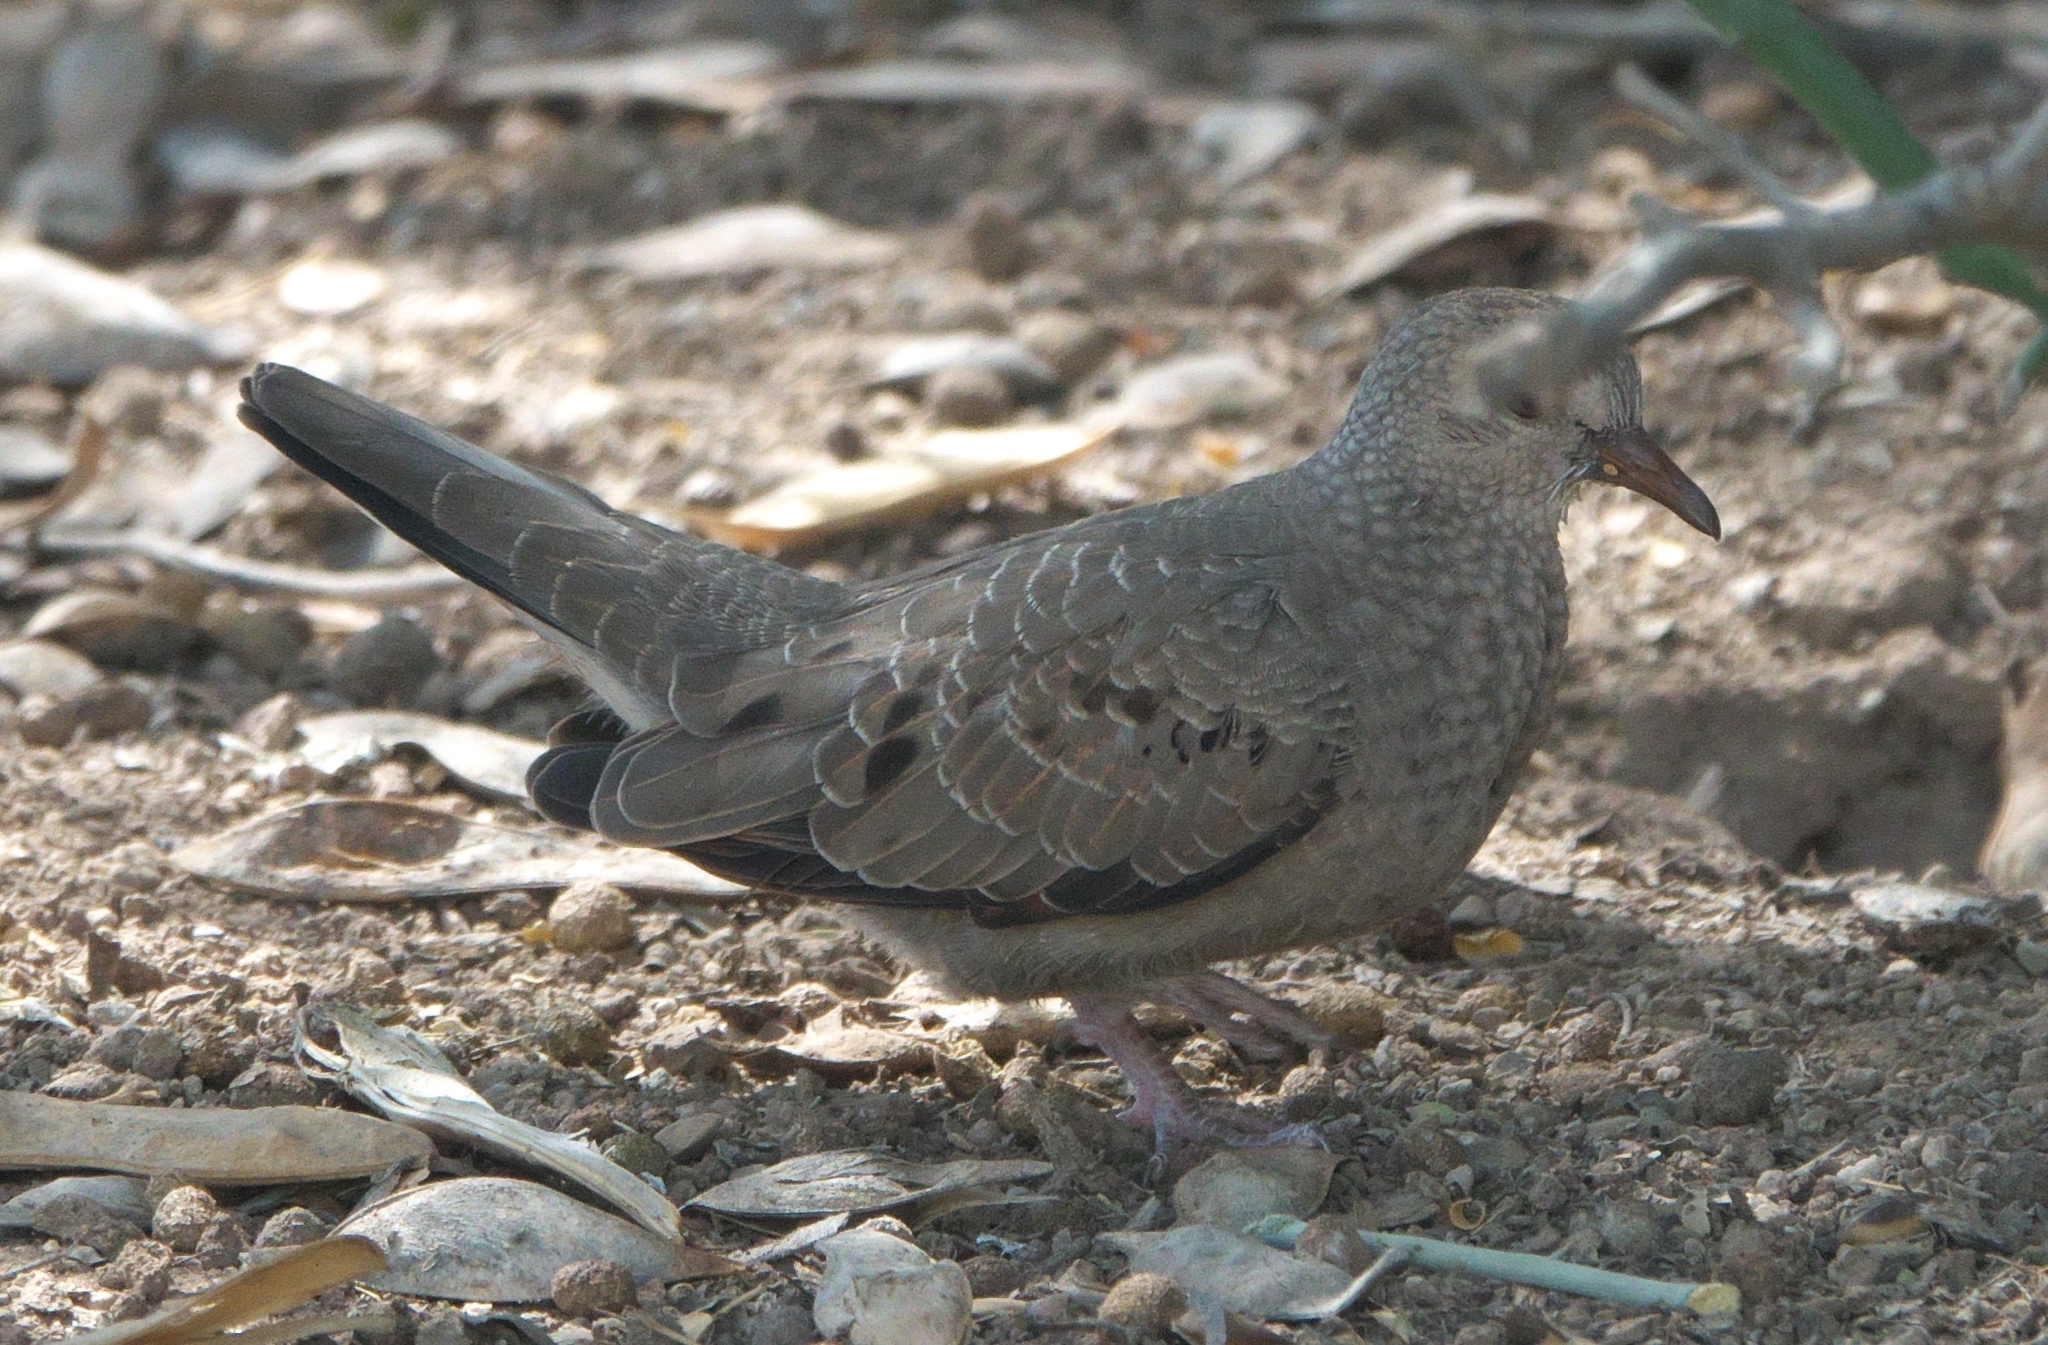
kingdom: Animalia
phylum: Chordata
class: Aves
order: Columbiformes
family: Columbidae
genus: Columbina
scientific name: Columbina passerina
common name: Common ground-dove
